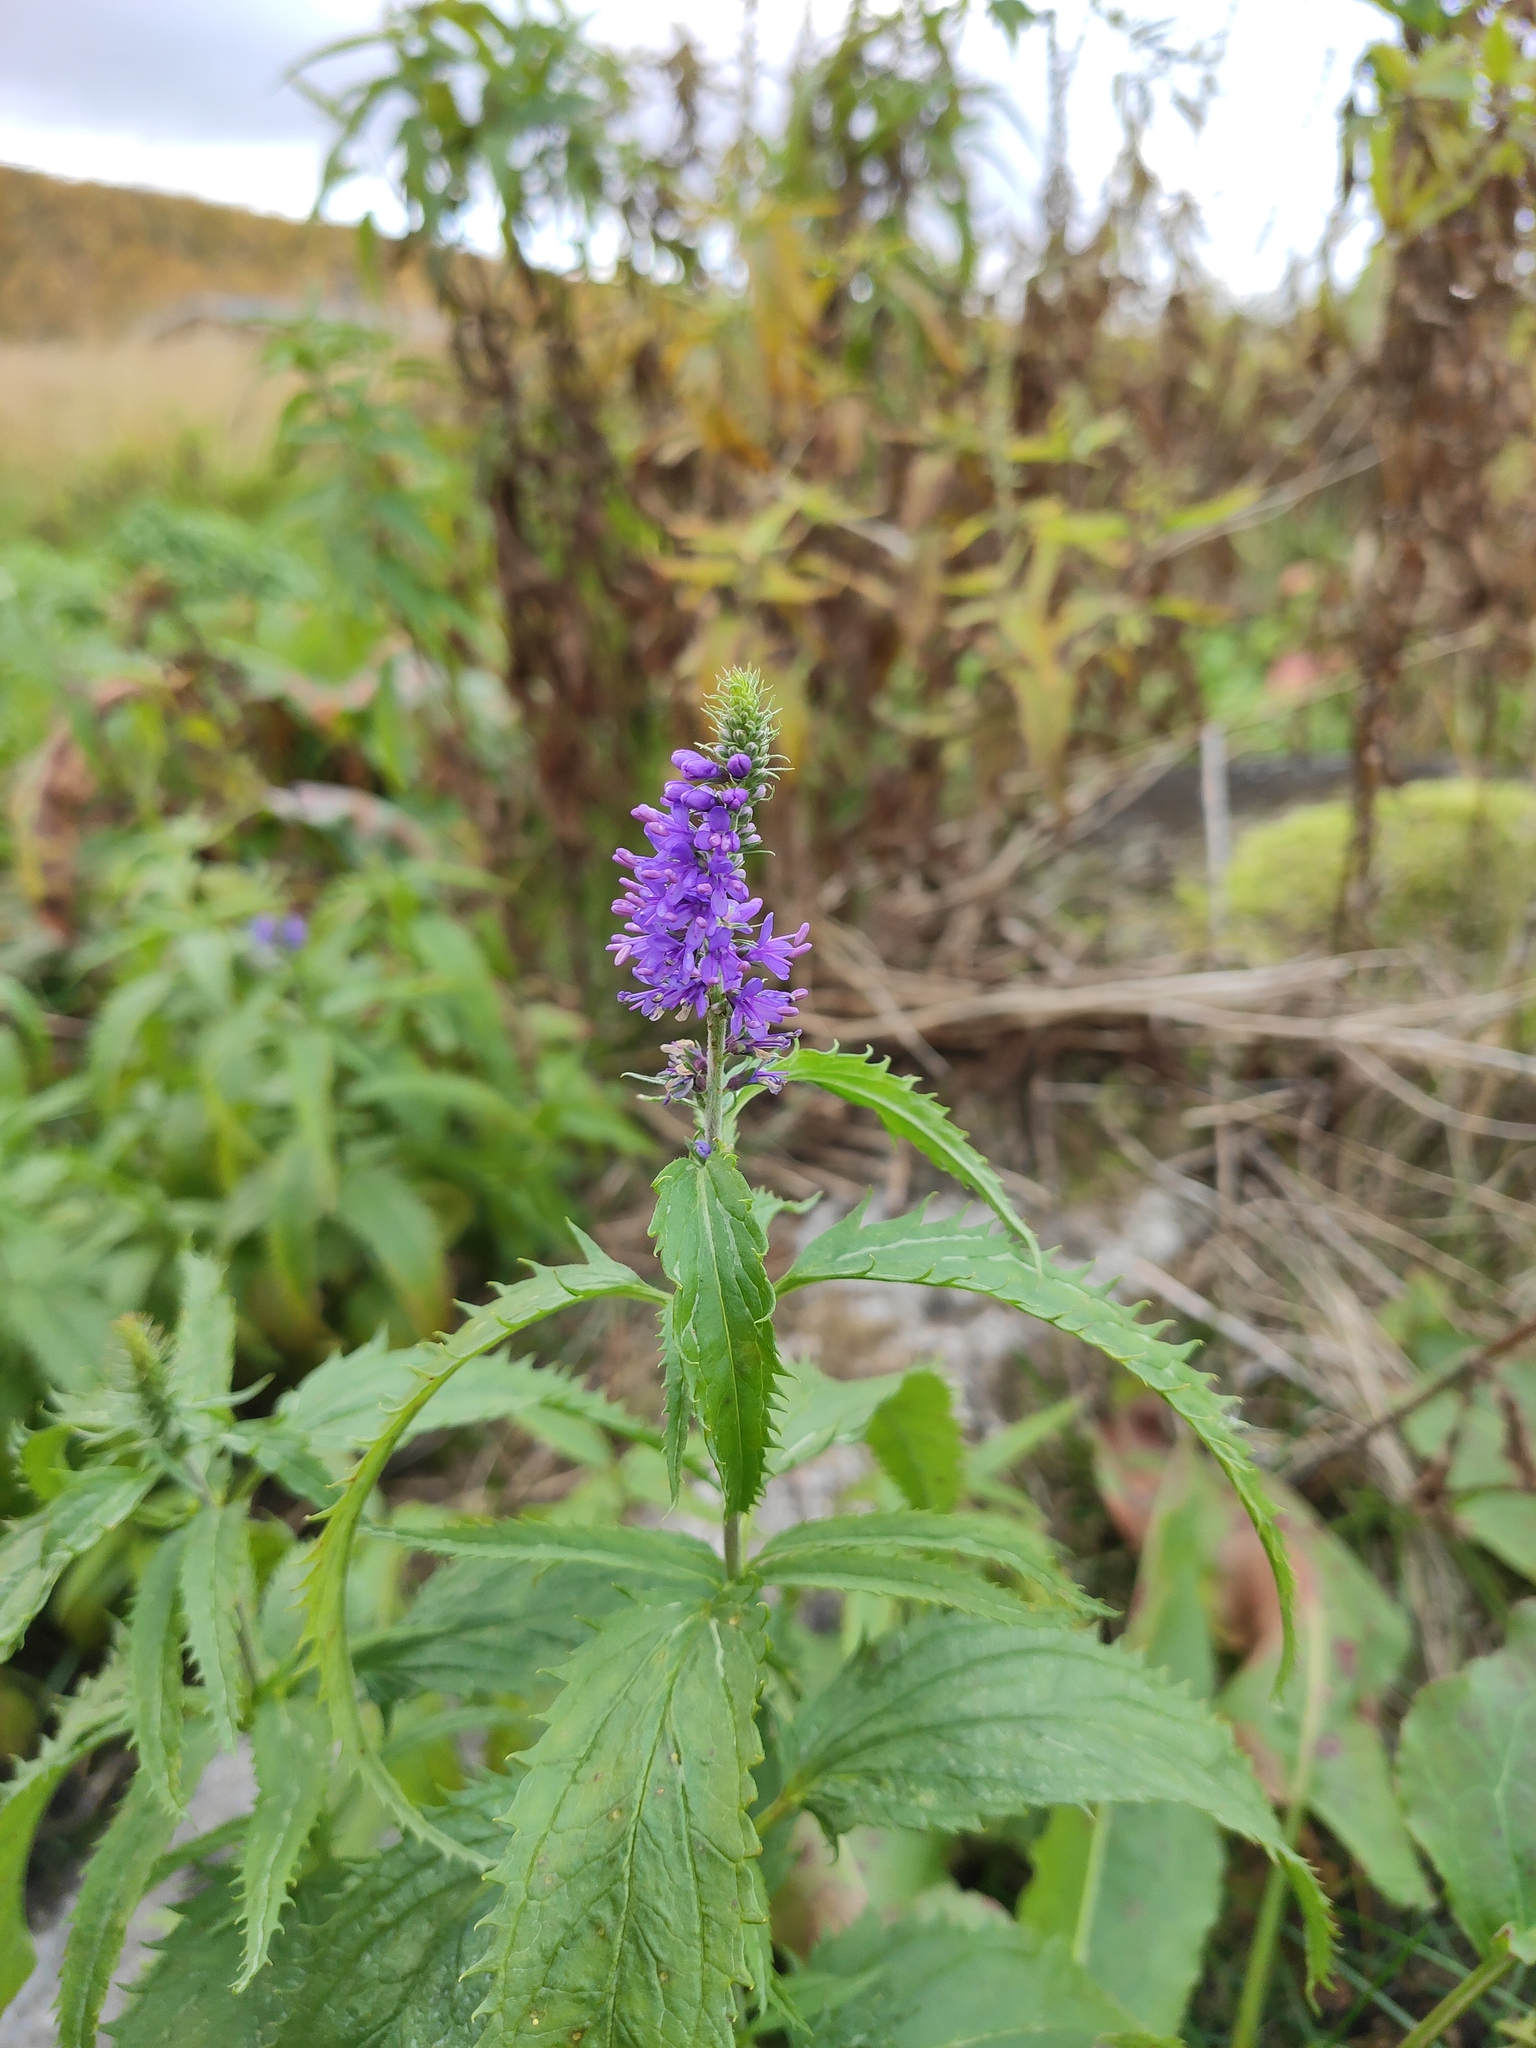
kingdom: Plantae
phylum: Tracheophyta
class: Magnoliopsida
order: Lamiales
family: Plantaginaceae
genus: Veronica
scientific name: Veronica longifolia
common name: Garden speedwell
